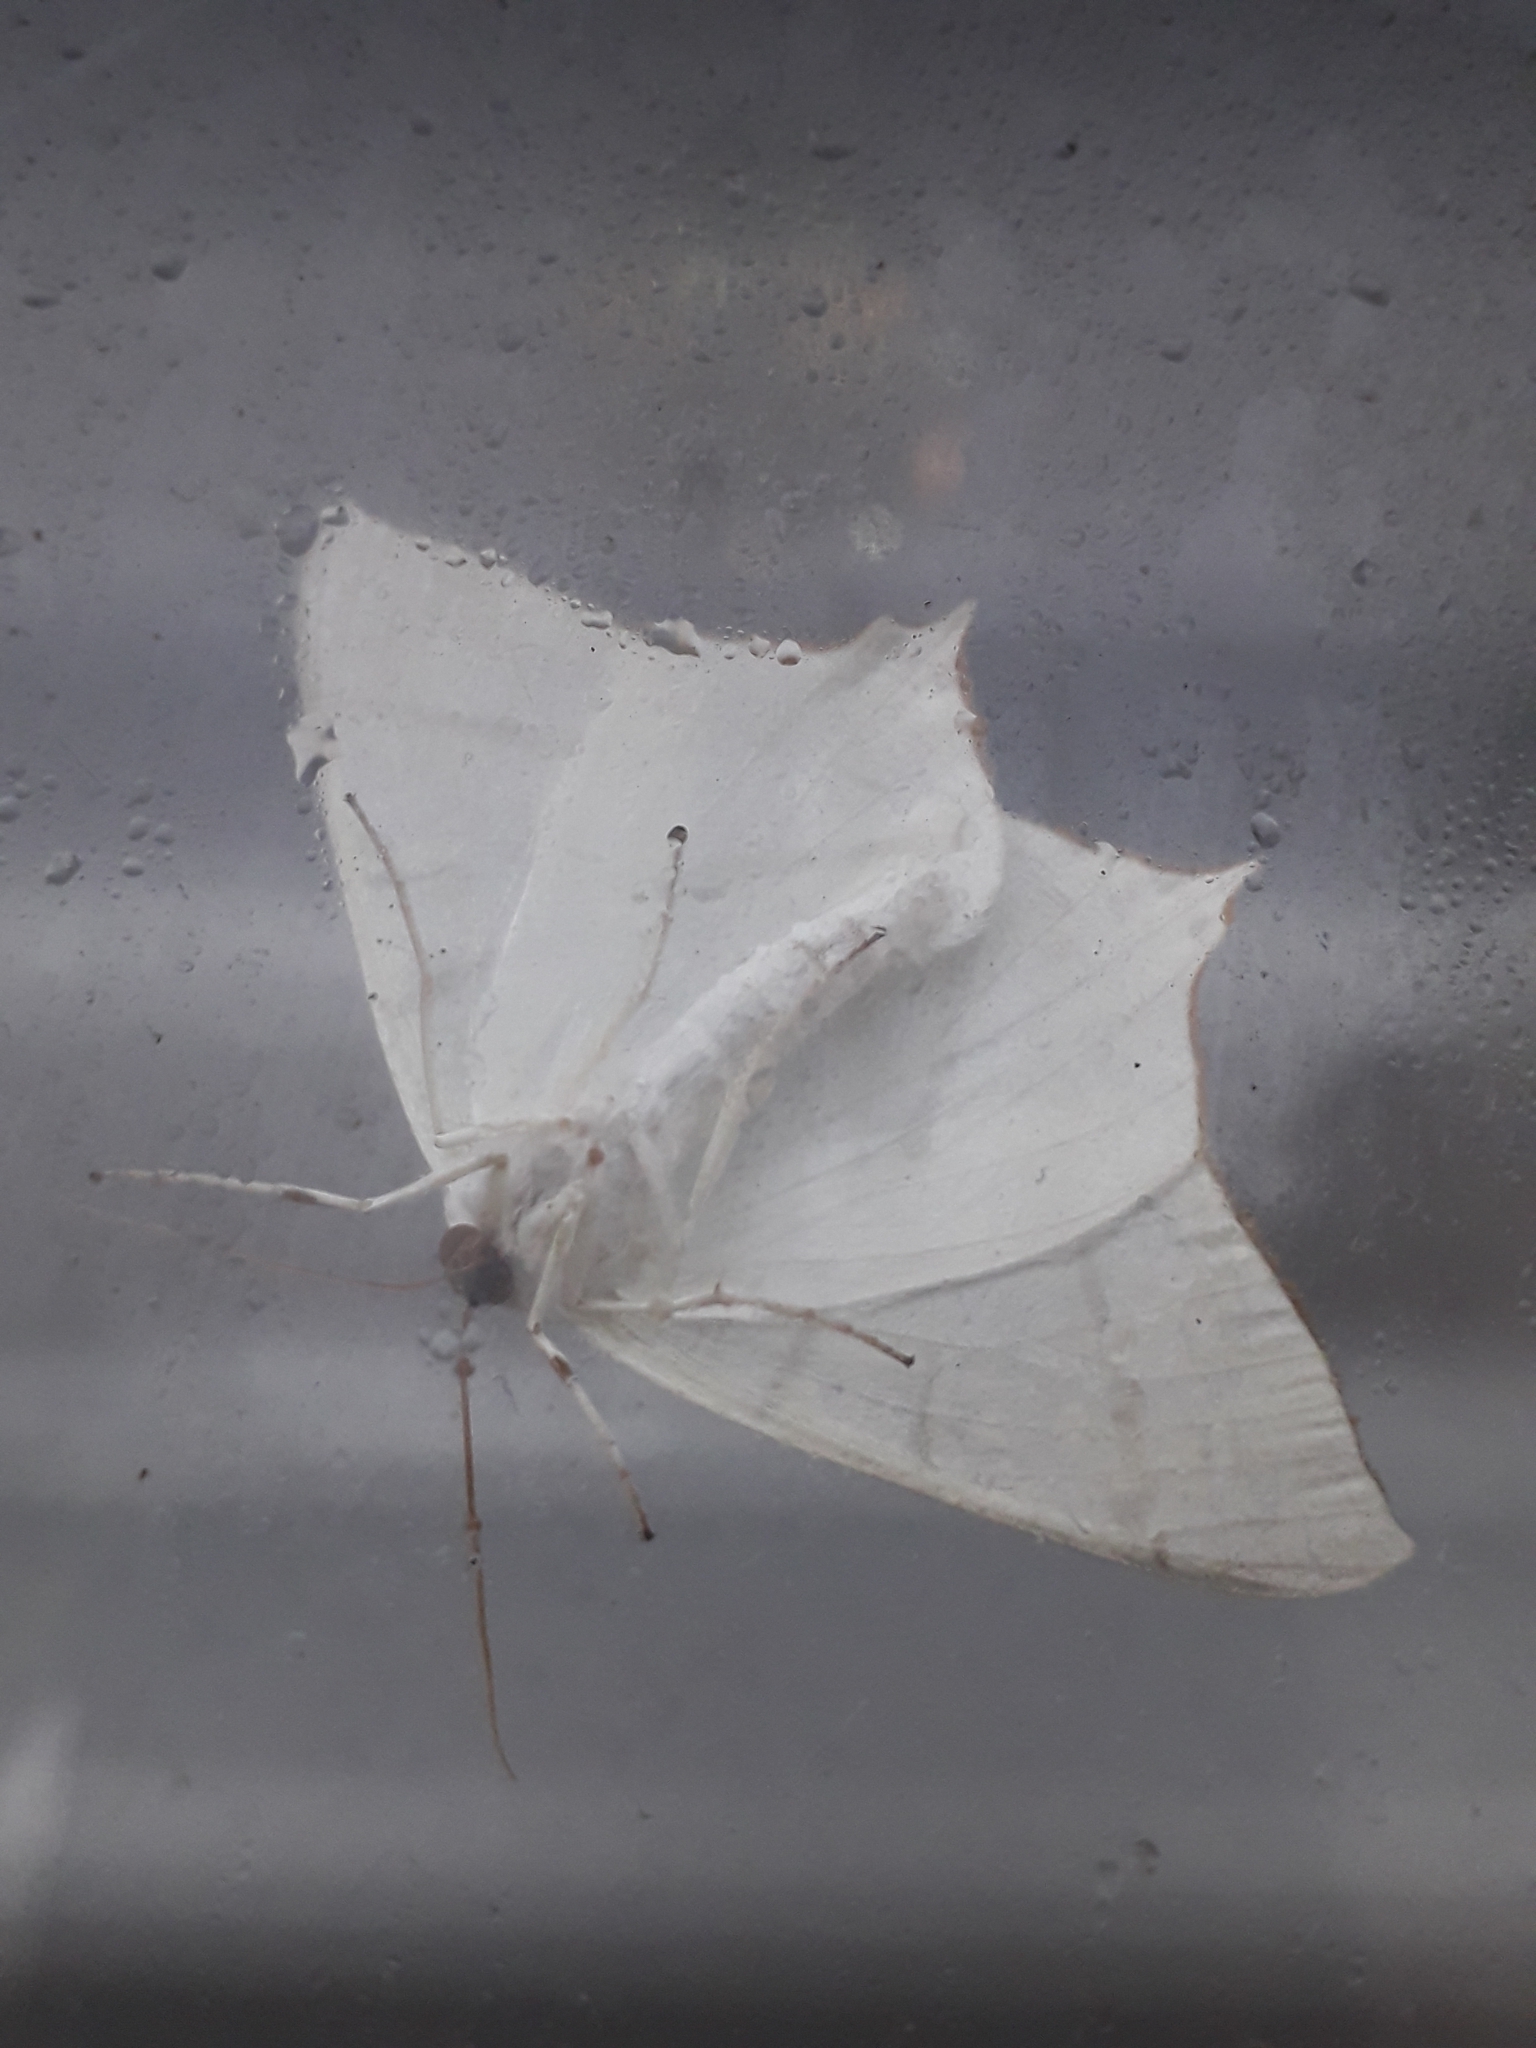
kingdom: Animalia
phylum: Arthropoda
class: Insecta
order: Lepidoptera
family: Geometridae
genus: Ourapteryx
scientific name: Ourapteryx persica
